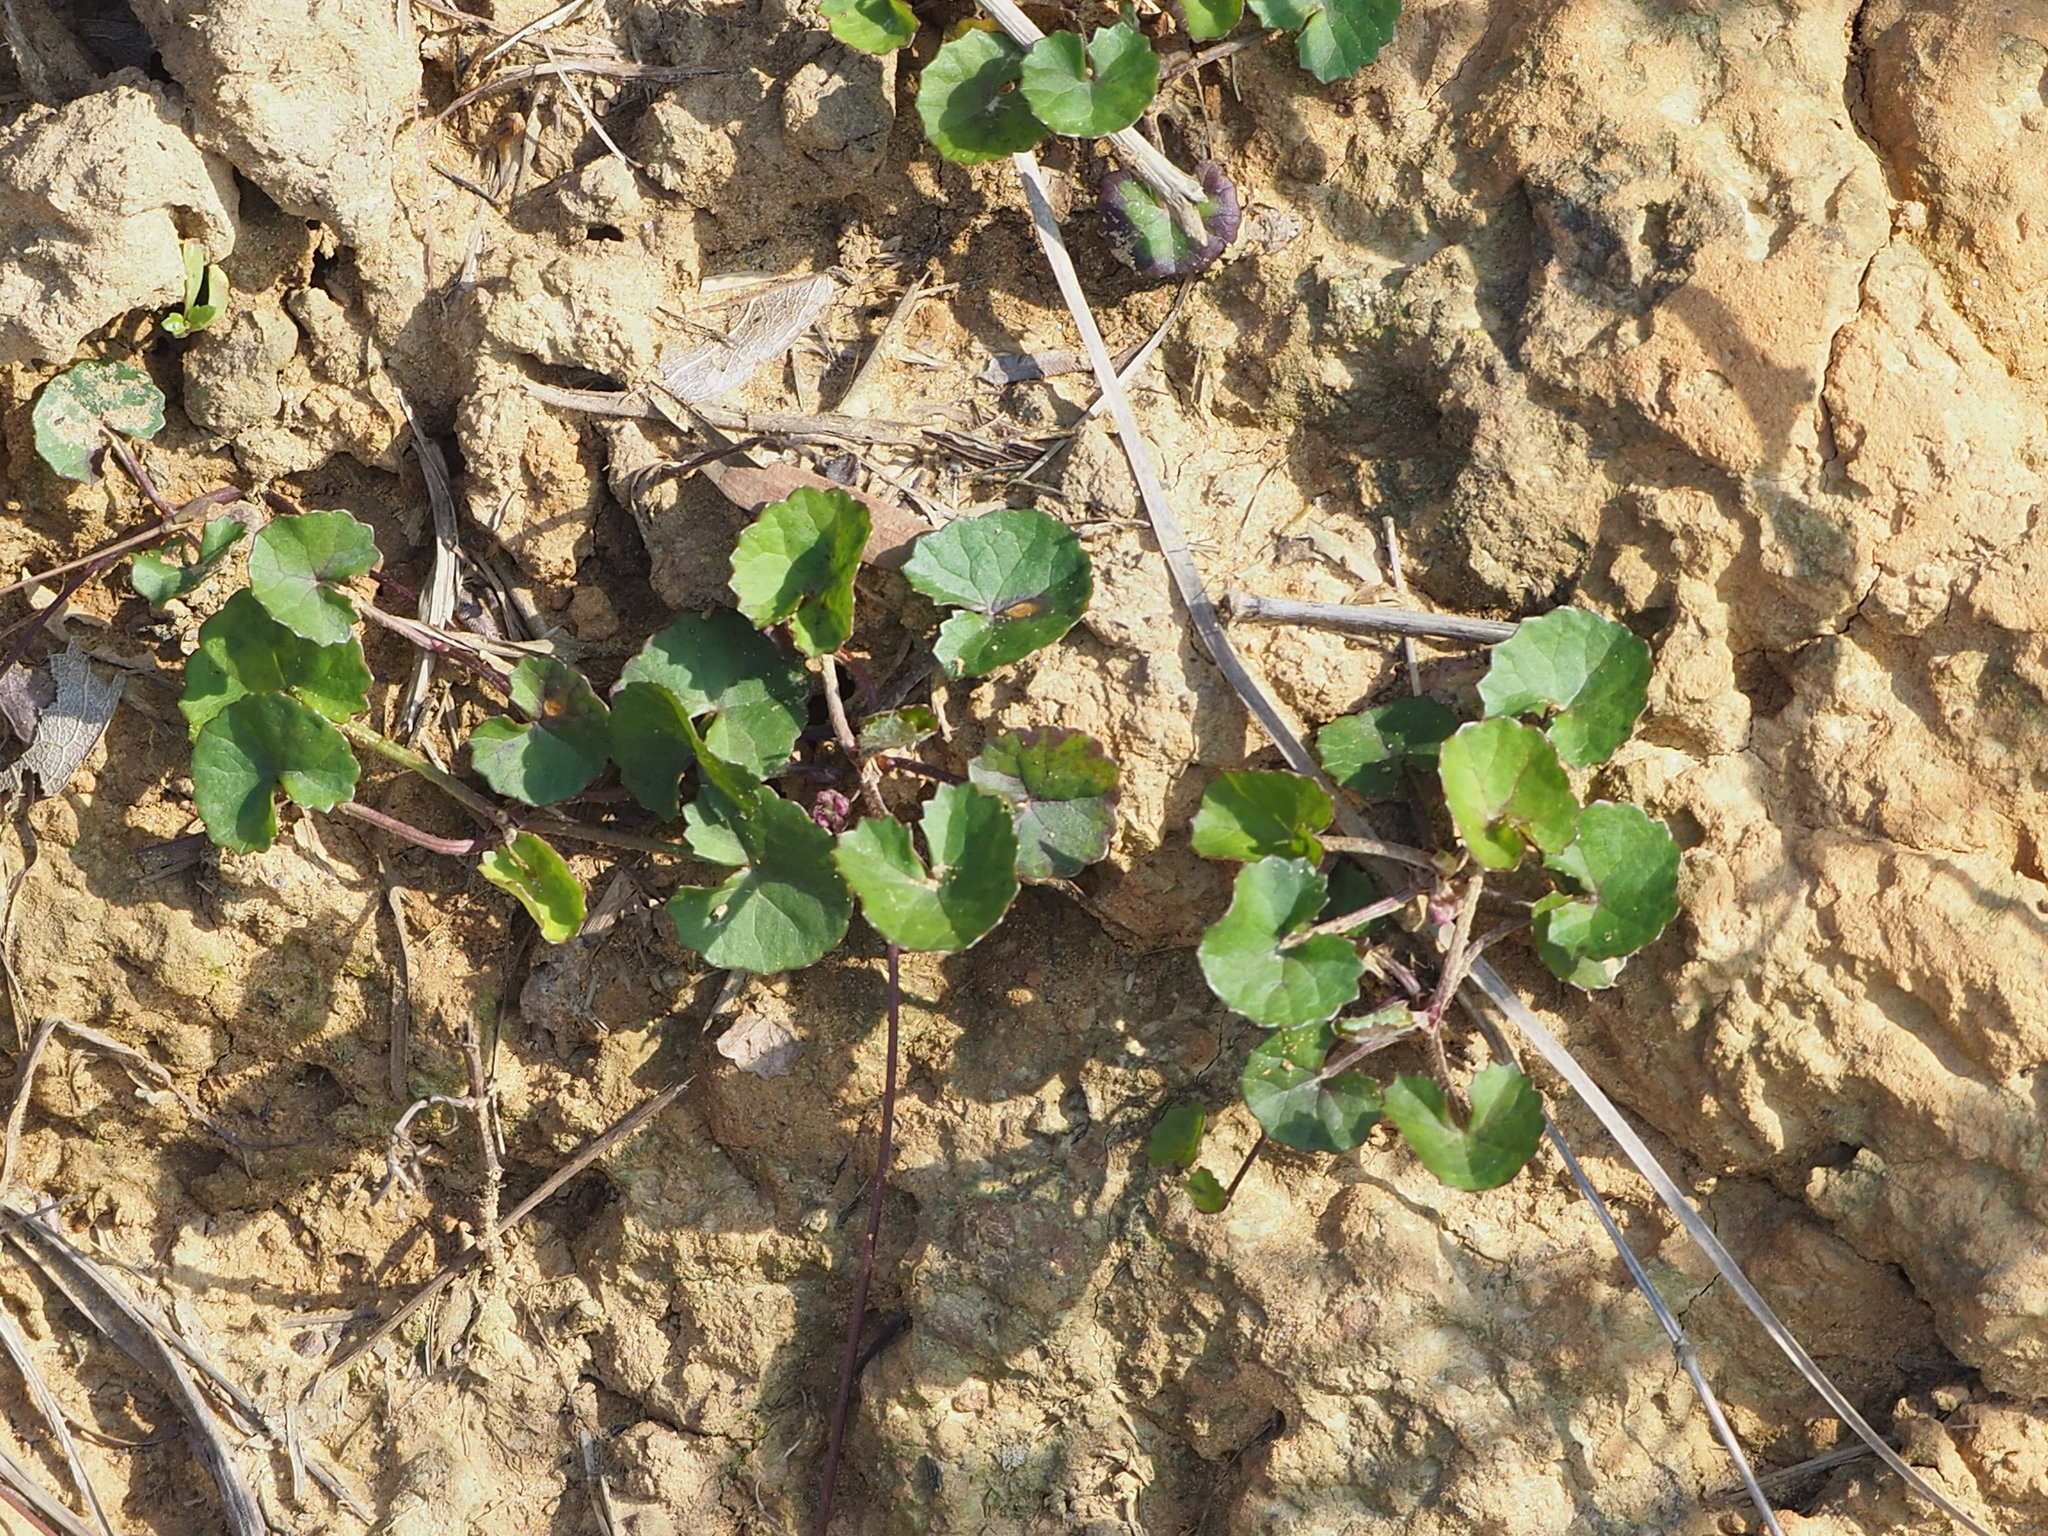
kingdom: Plantae
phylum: Tracheophyta
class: Magnoliopsida
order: Apiales
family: Apiaceae
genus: Centella
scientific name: Centella asiatica
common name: Spadeleaf
